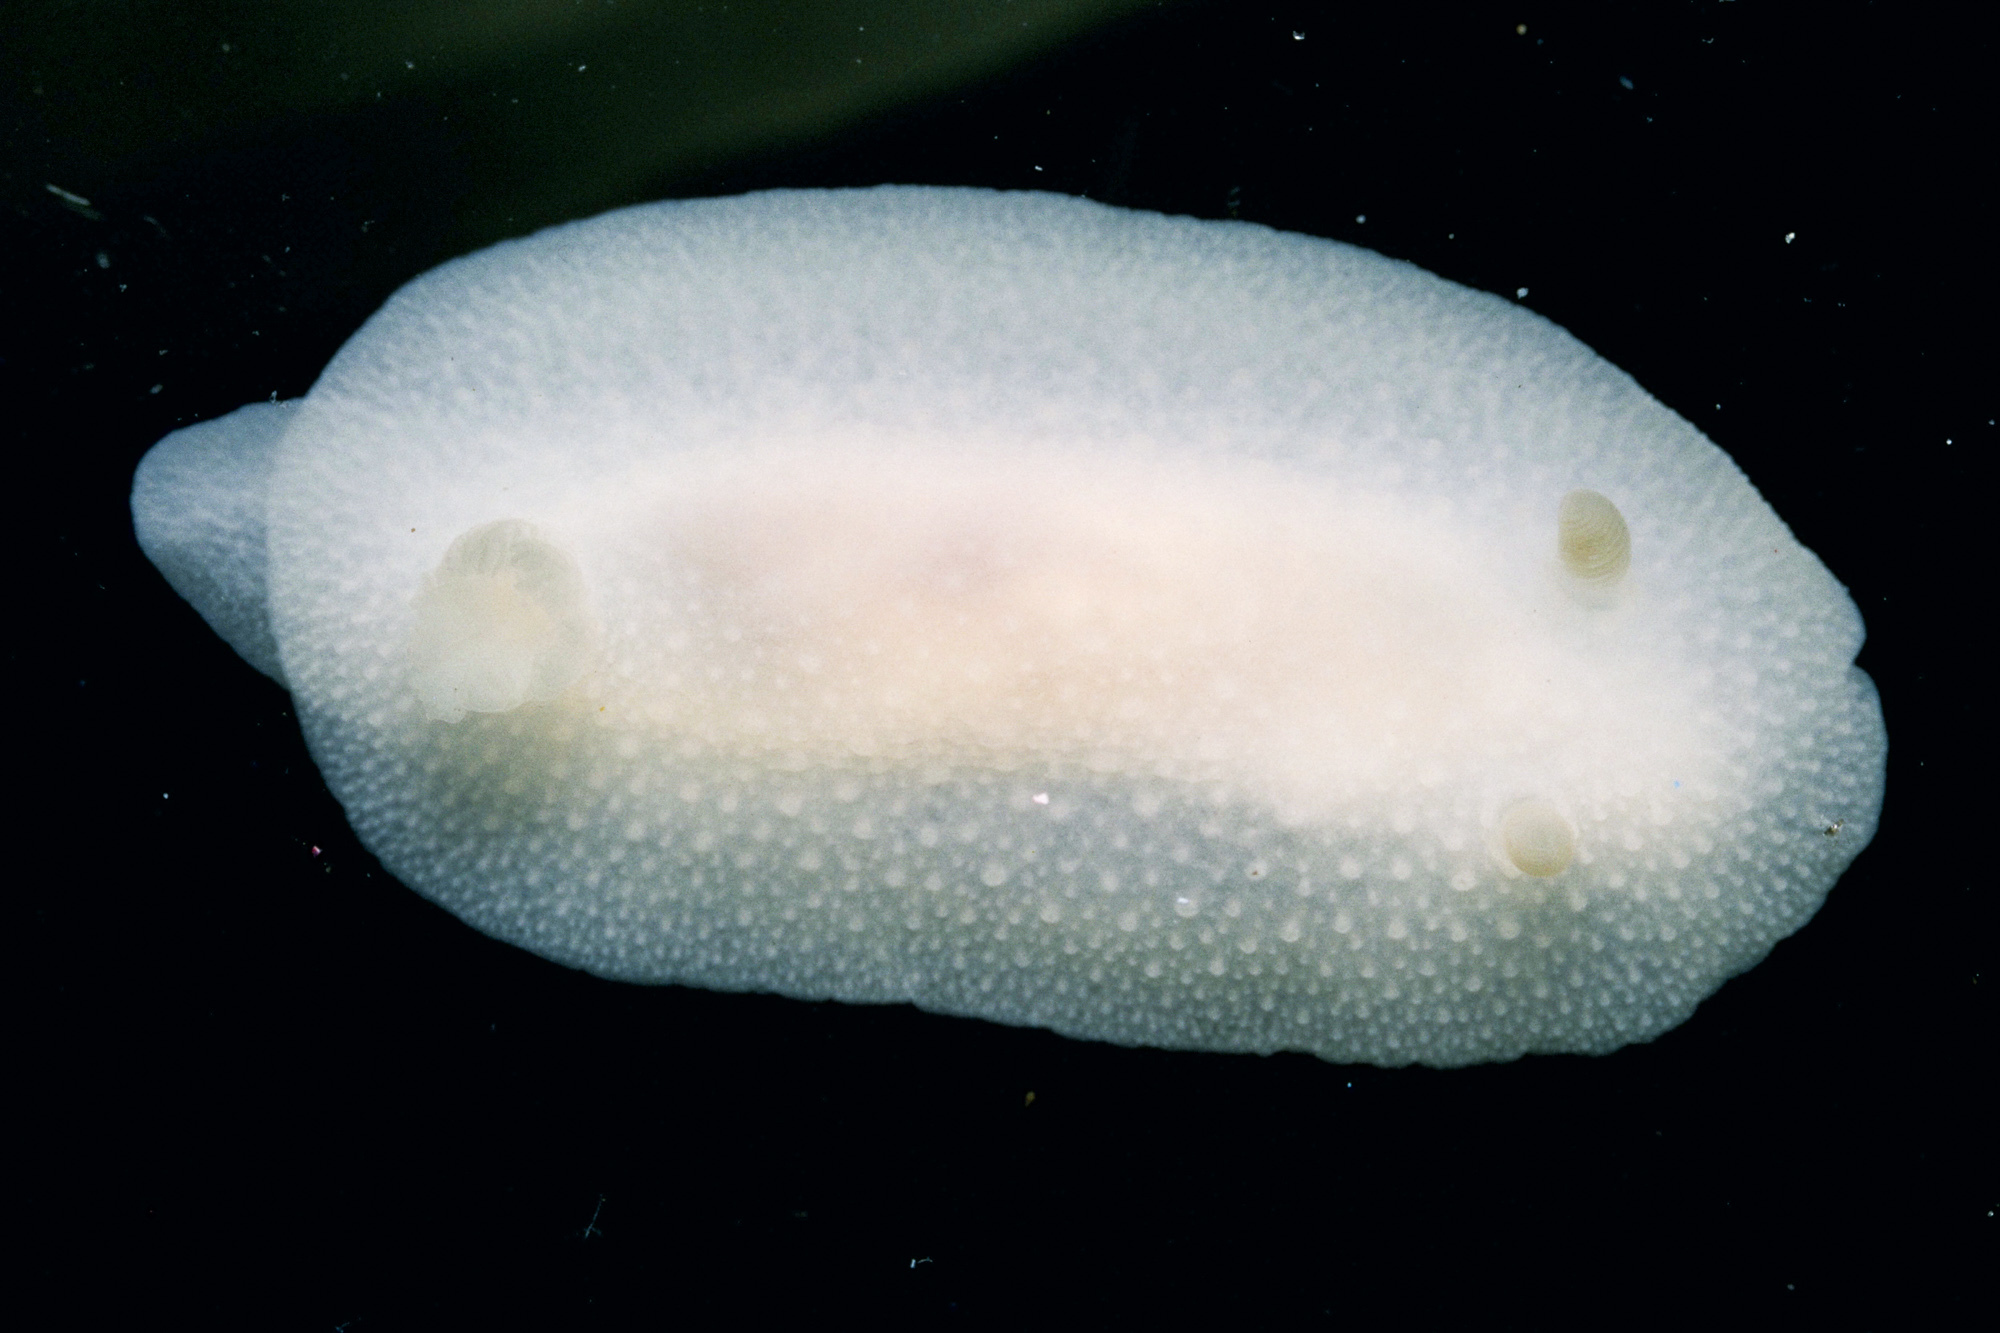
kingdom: Animalia
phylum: Mollusca
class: Gastropoda
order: Nudibranchia
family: Cadlinidae
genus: Cadlina
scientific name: Cadlina laevis
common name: White atlantic cadlina
